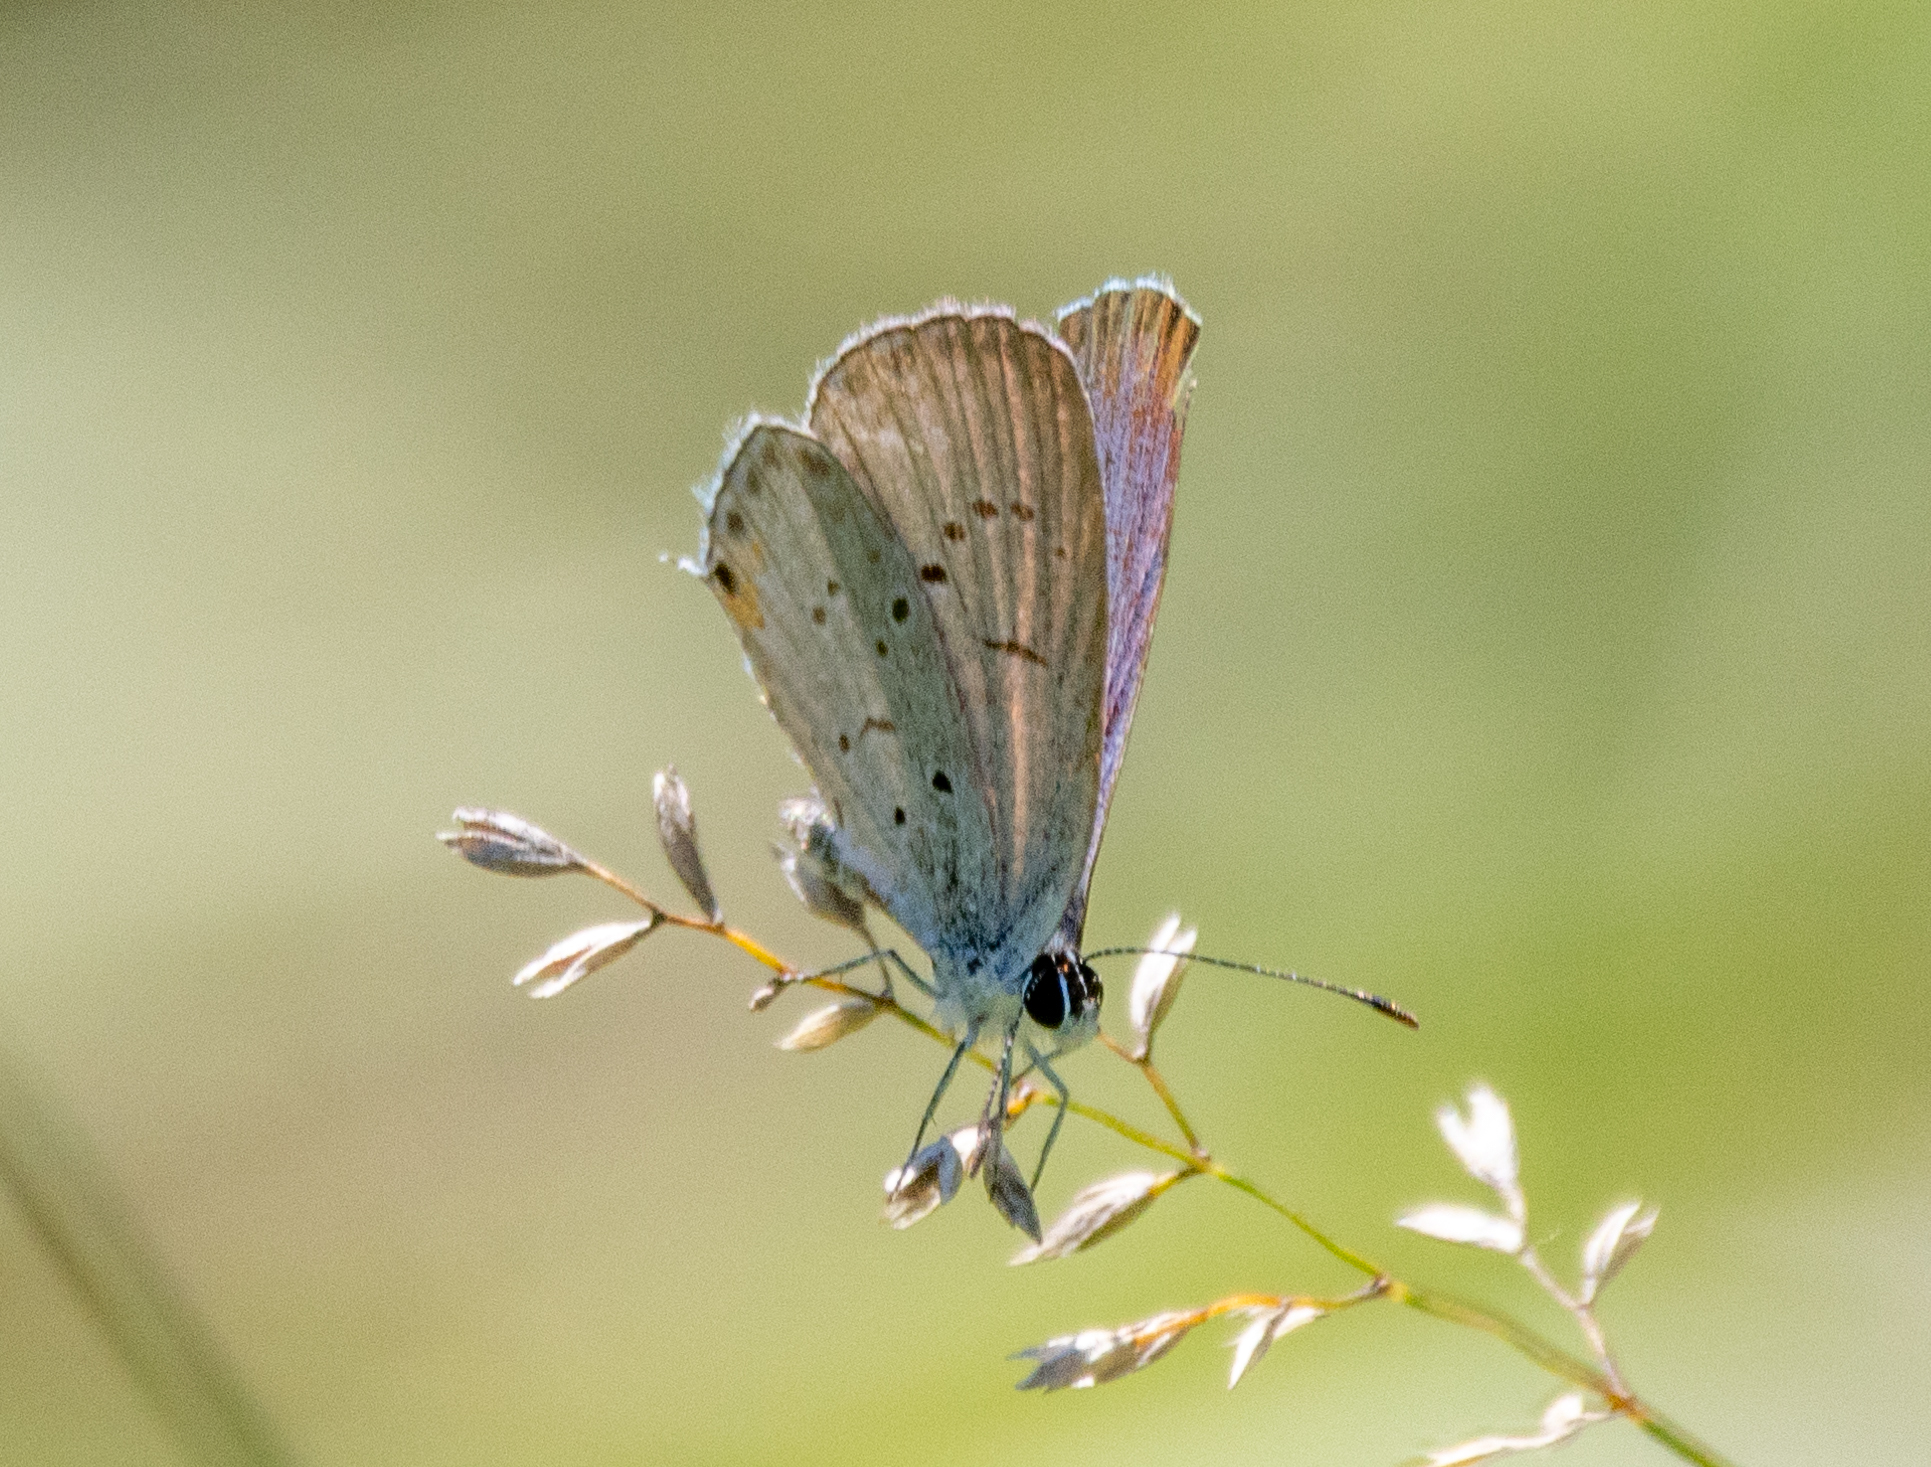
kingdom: Animalia
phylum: Arthropoda
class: Insecta
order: Lepidoptera
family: Lycaenidae
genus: Elkalyce
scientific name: Elkalyce comyntas
